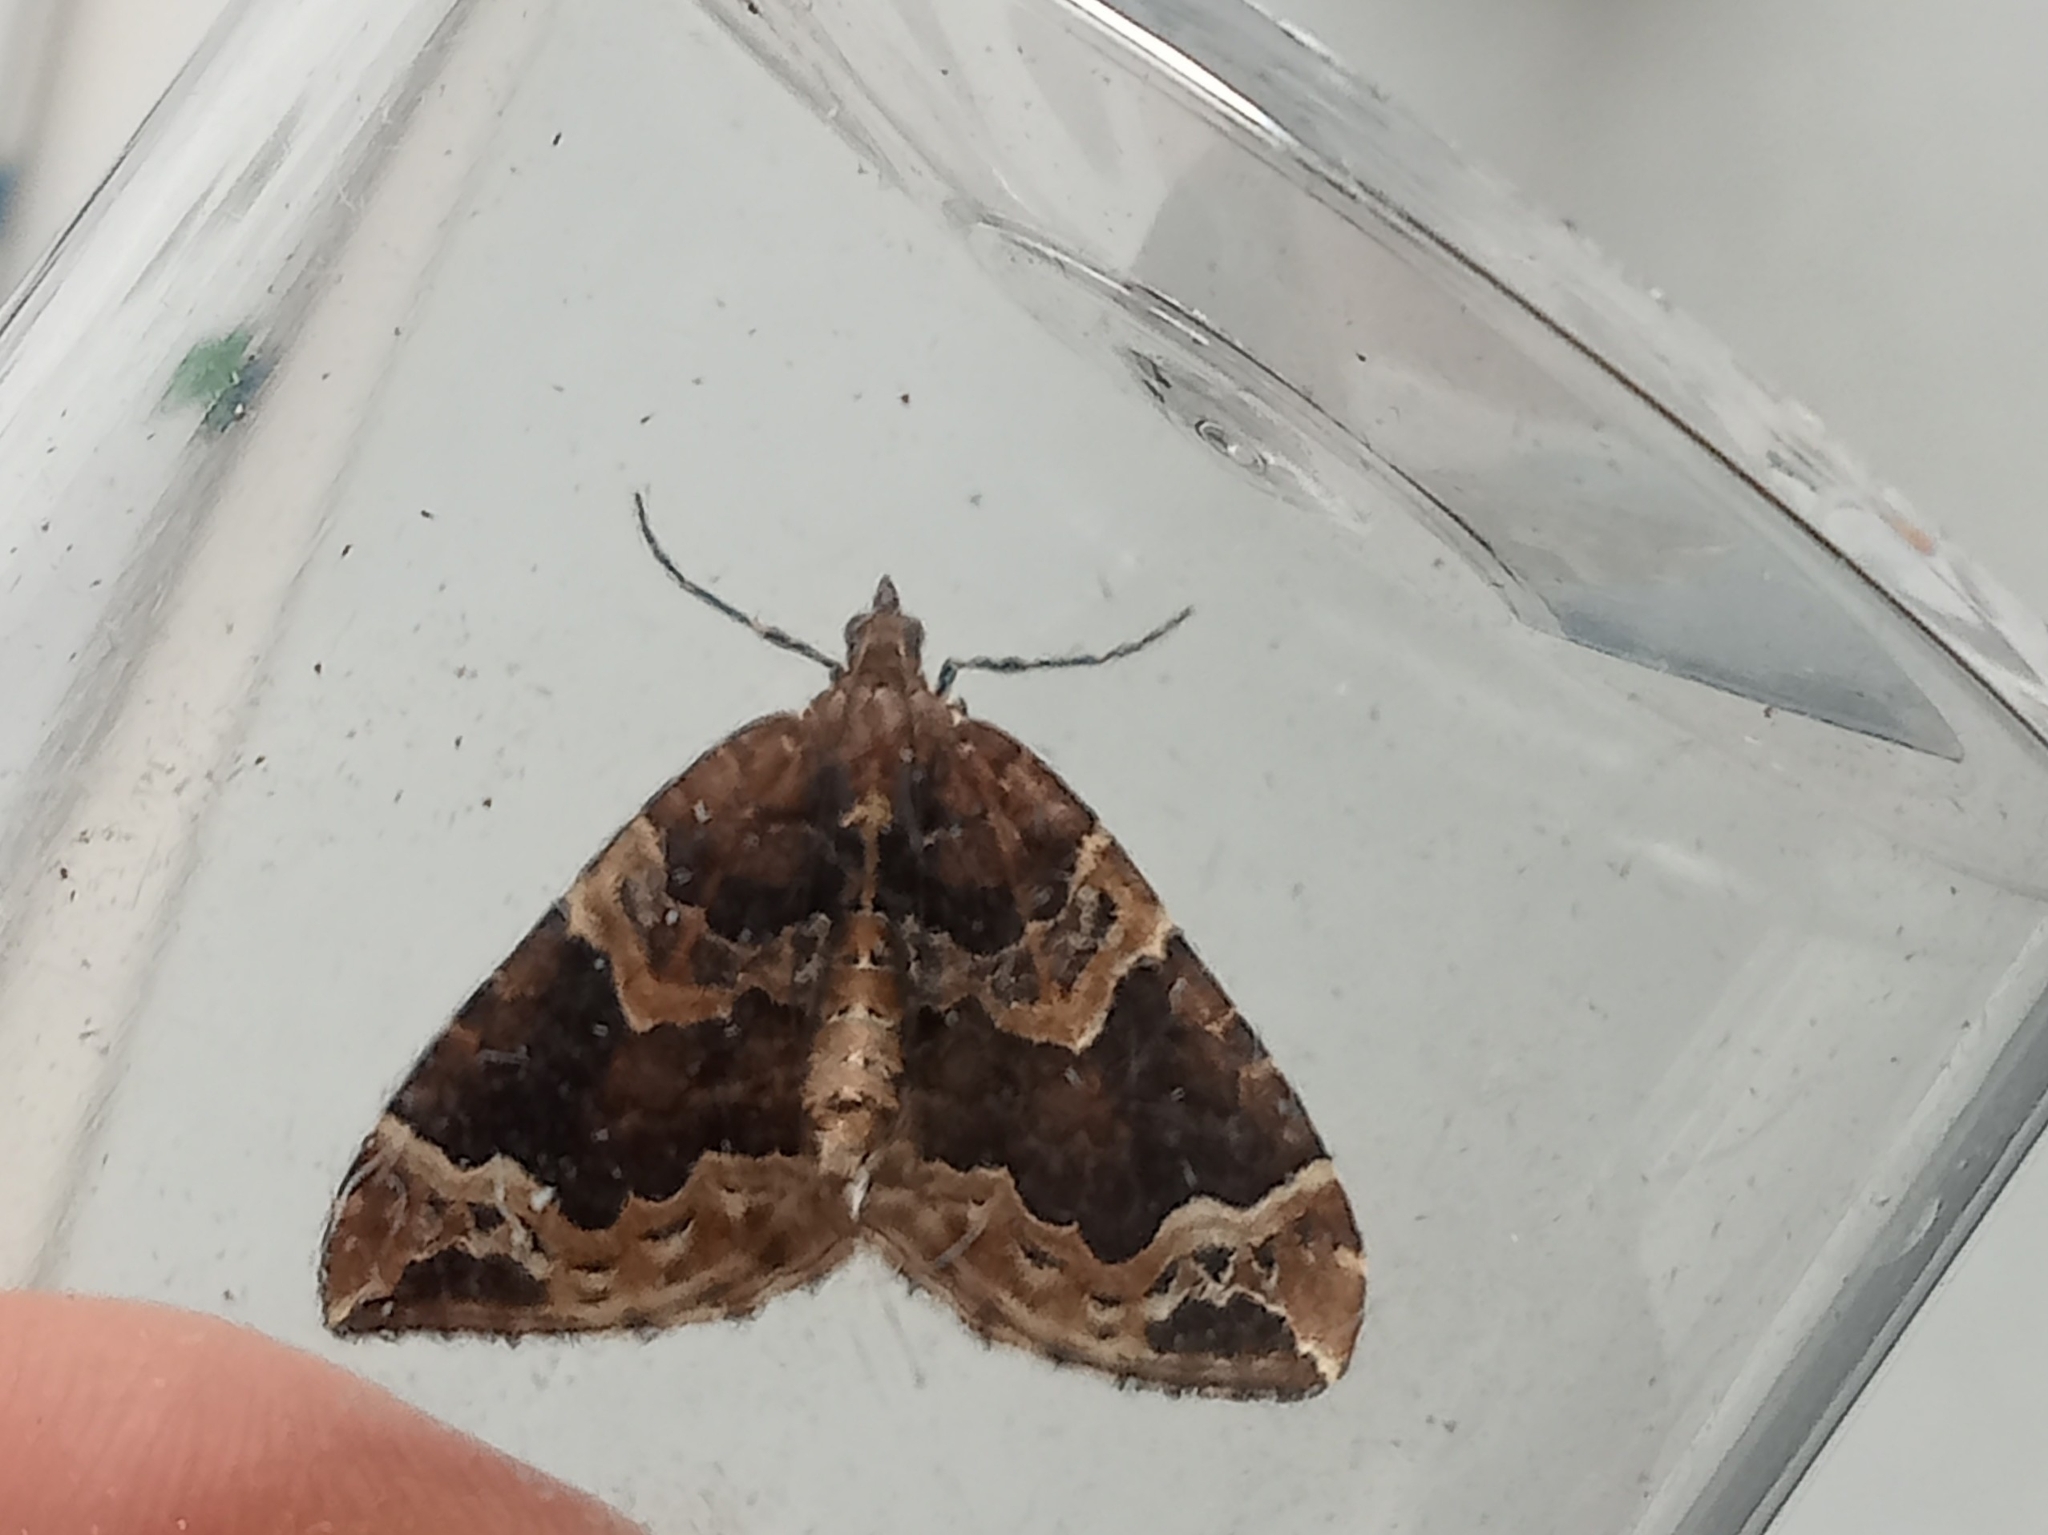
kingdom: Animalia
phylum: Arthropoda
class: Insecta
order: Lepidoptera
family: Geometridae
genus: Eulithis
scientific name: Eulithis prunata
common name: Phoenix
